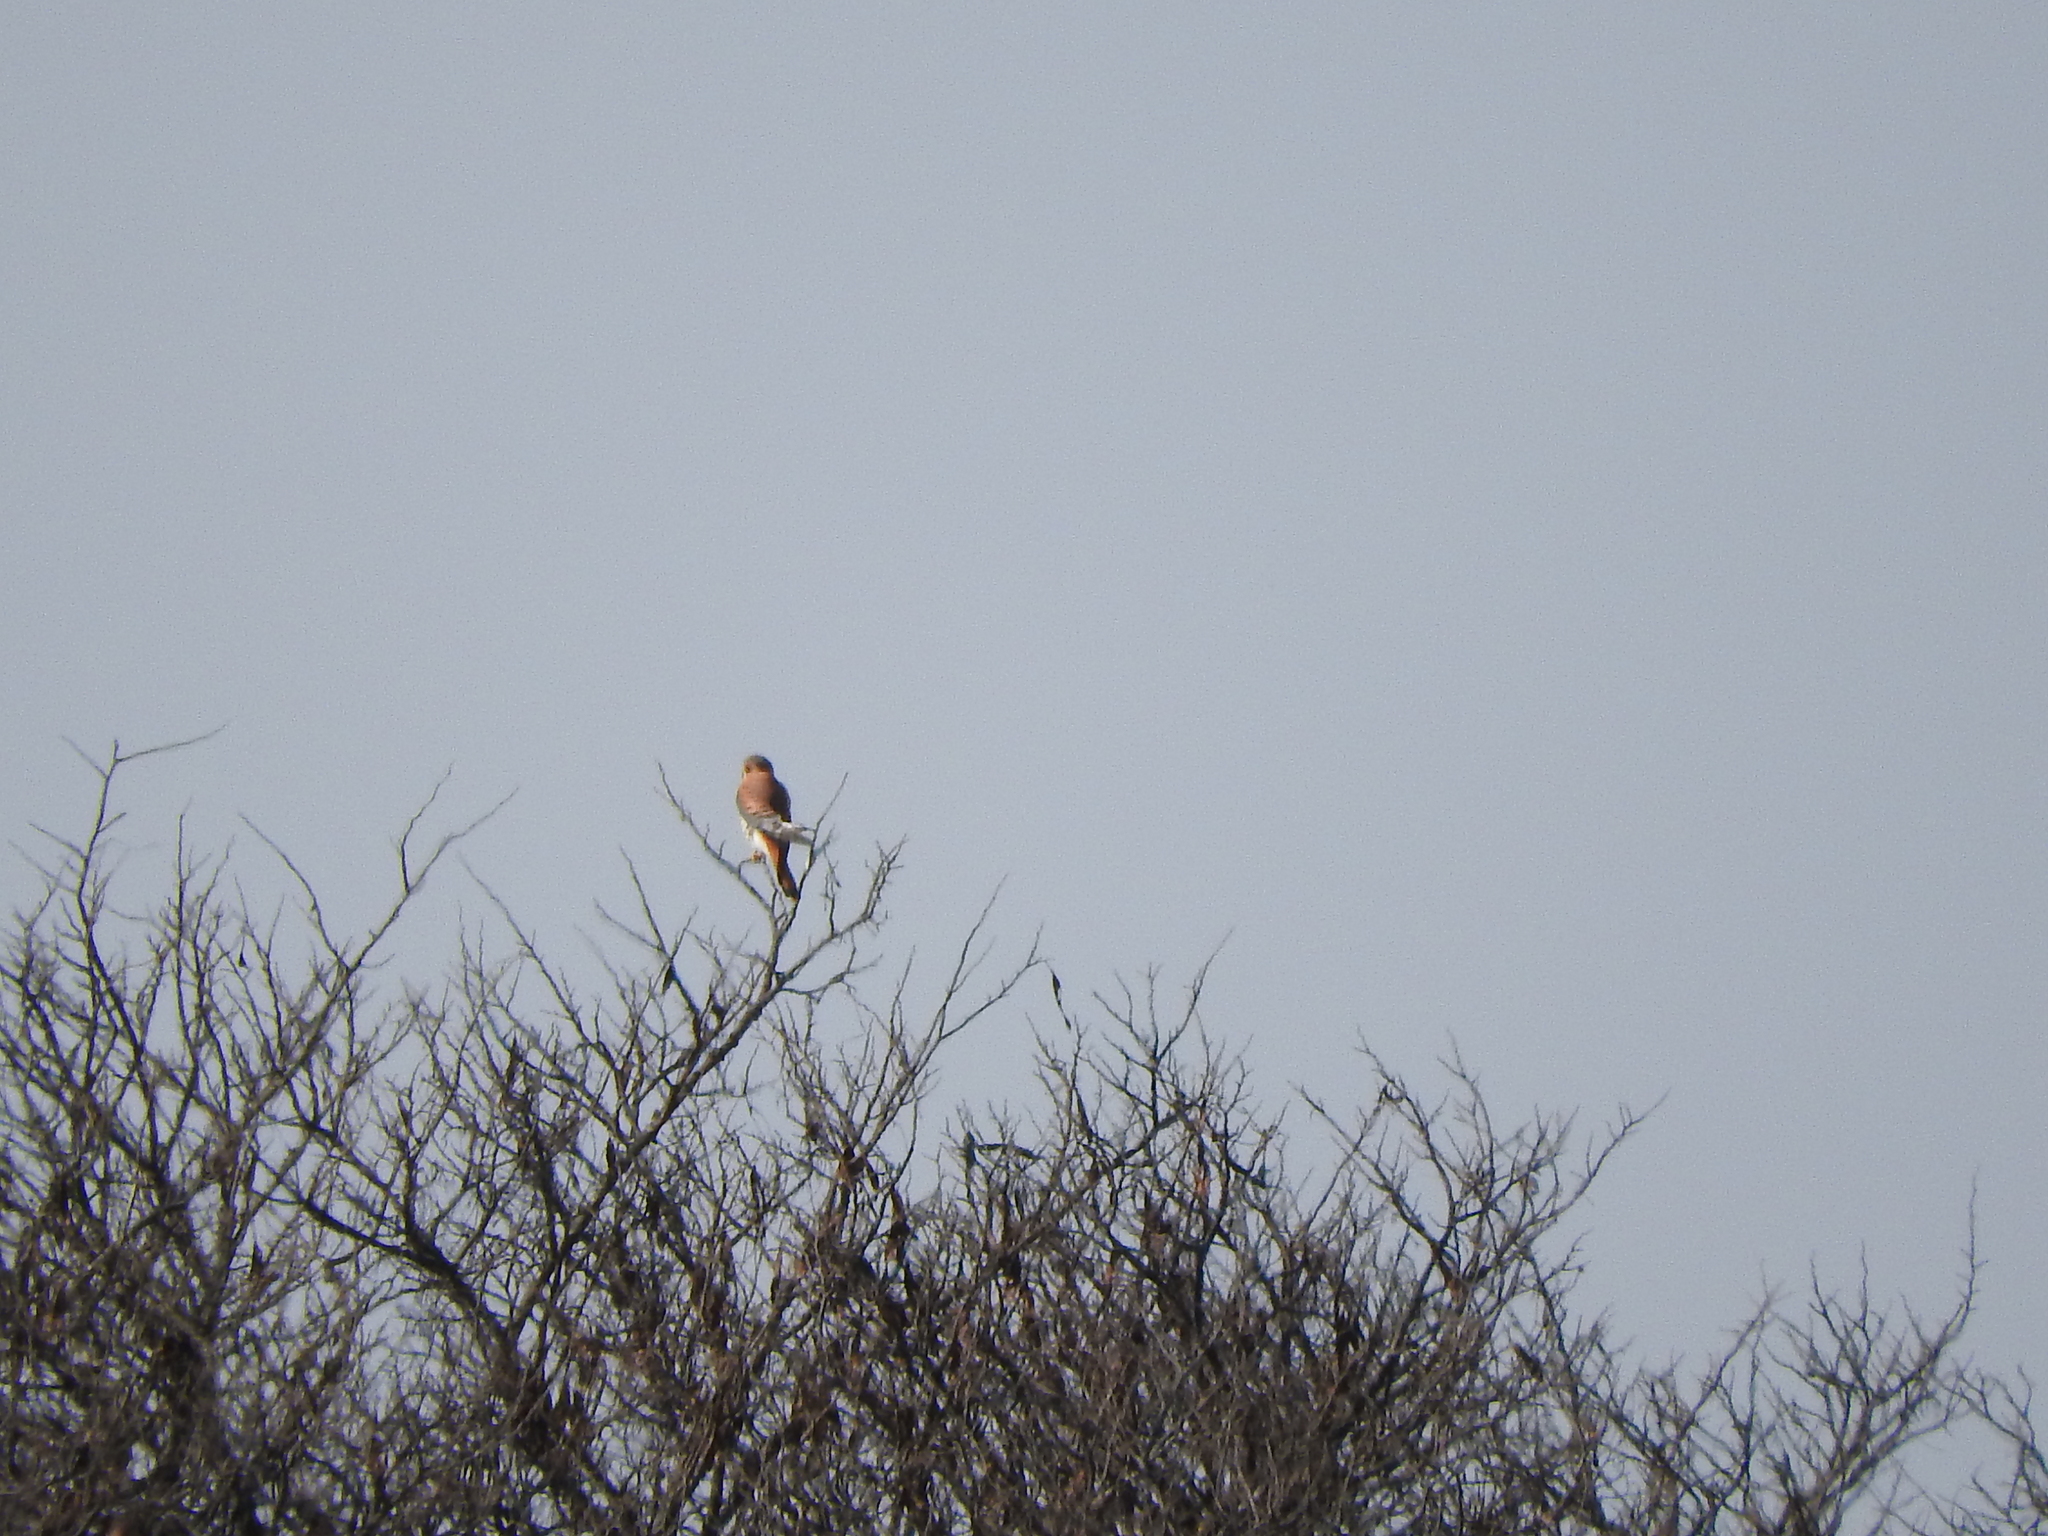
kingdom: Animalia
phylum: Chordata
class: Aves
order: Falconiformes
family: Falconidae
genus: Falco
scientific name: Falco sparverius
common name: American kestrel
